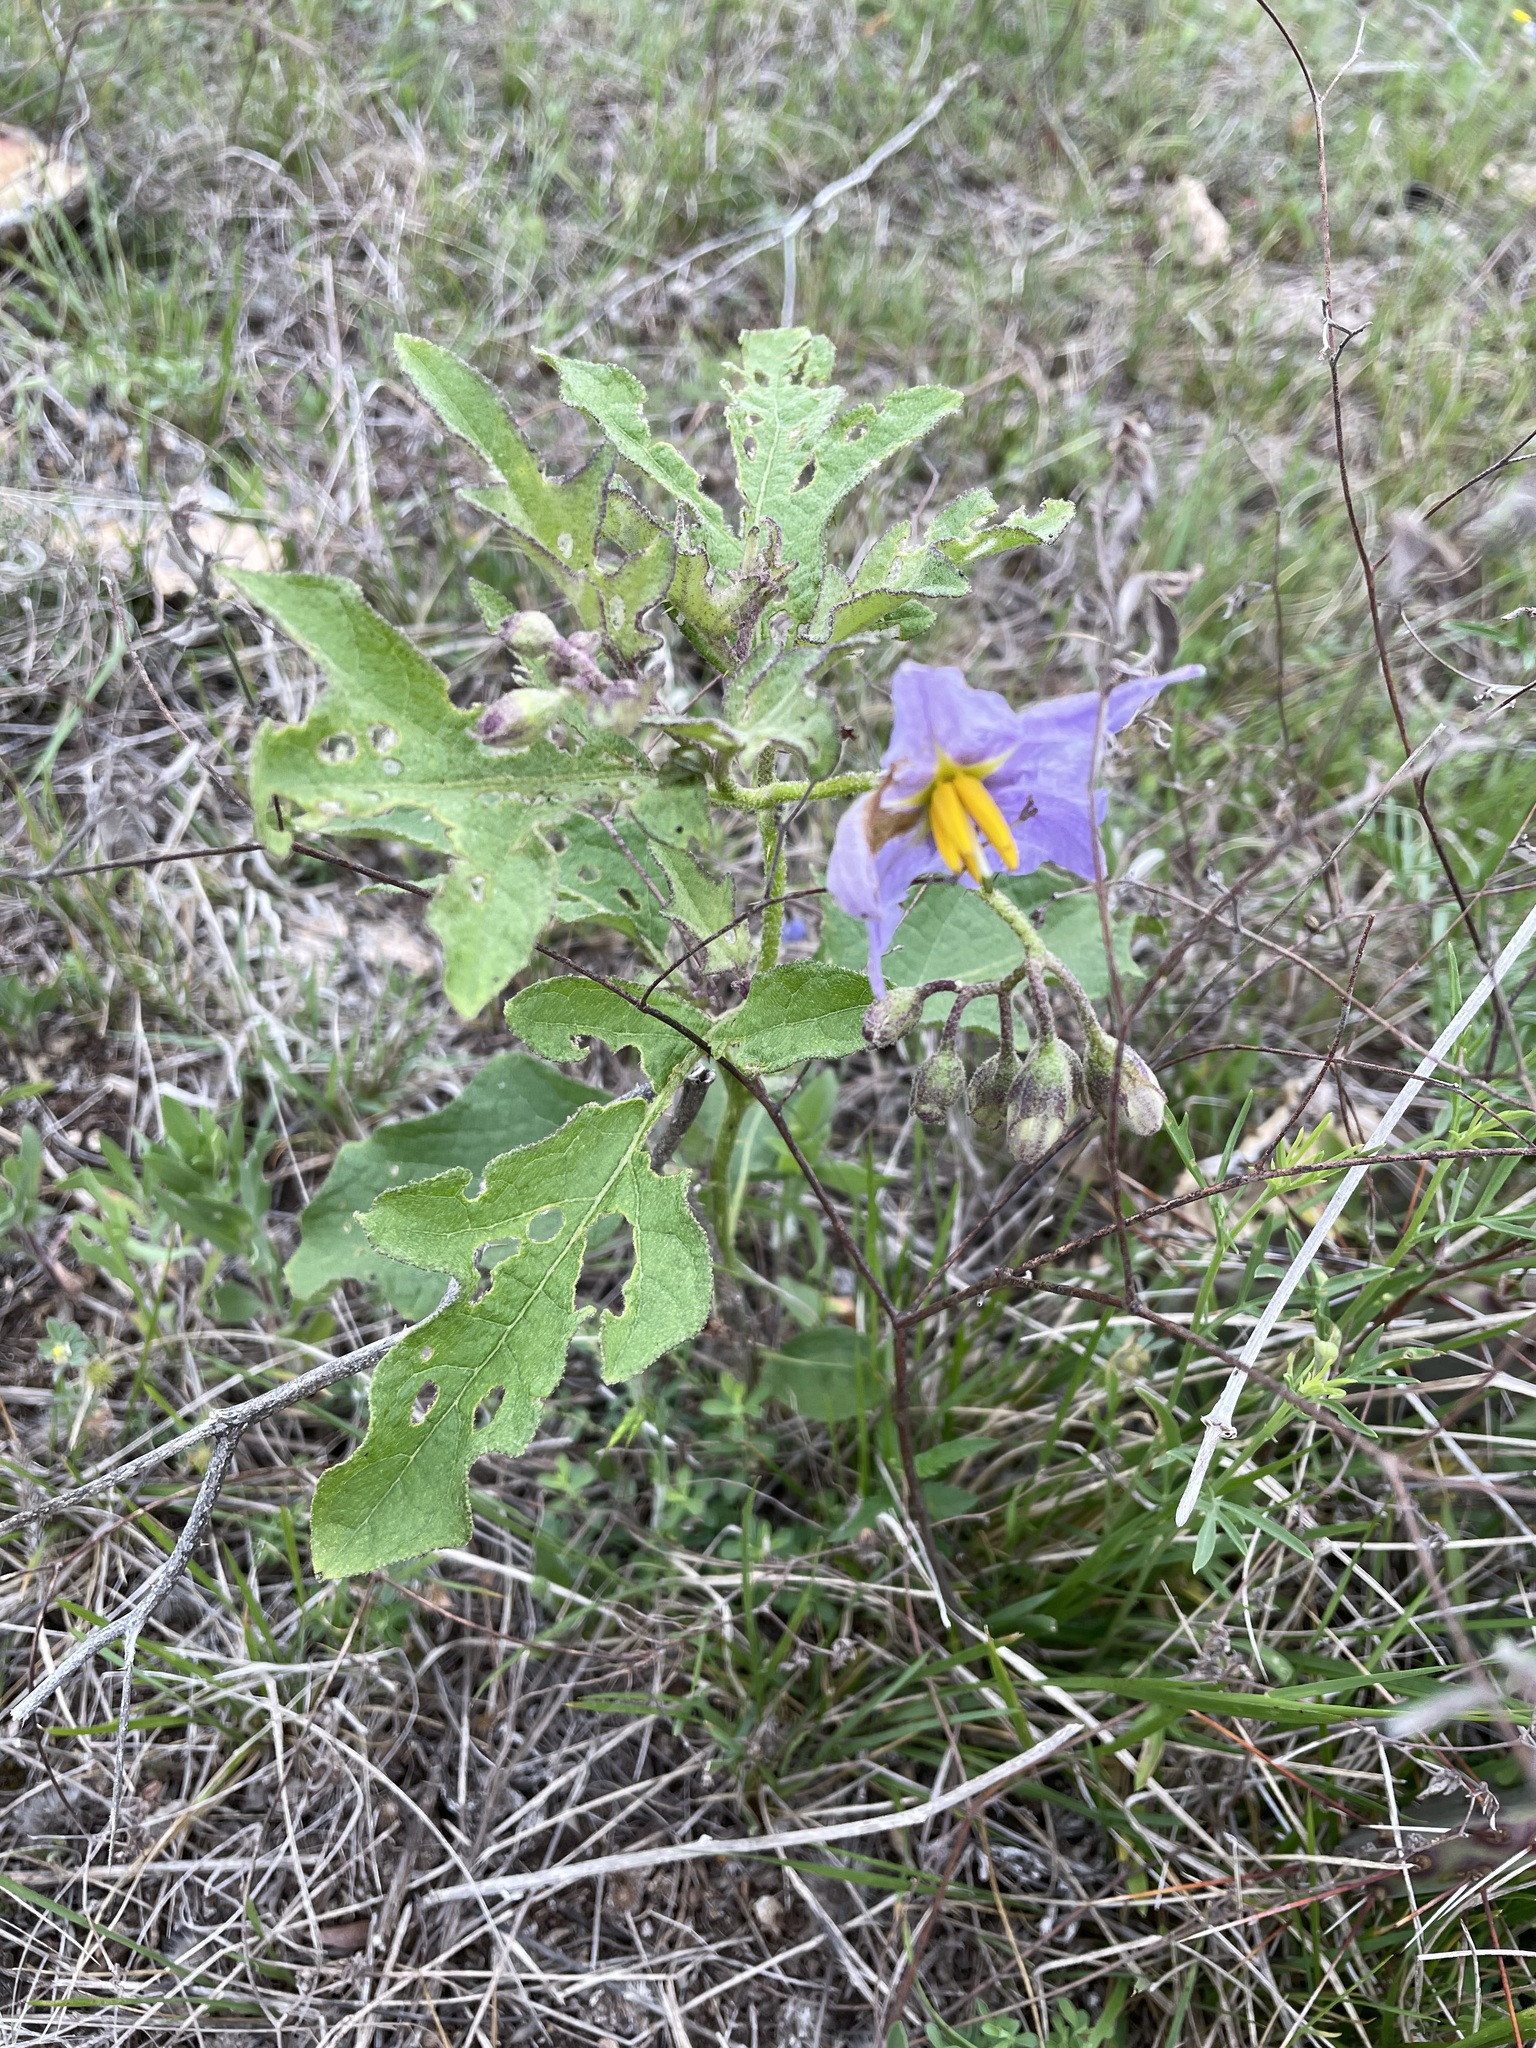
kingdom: Plantae
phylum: Tracheophyta
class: Magnoliopsida
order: Solanales
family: Solanaceae
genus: Solanum
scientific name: Solanum dimidiatum
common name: Carolina horse-nettle
